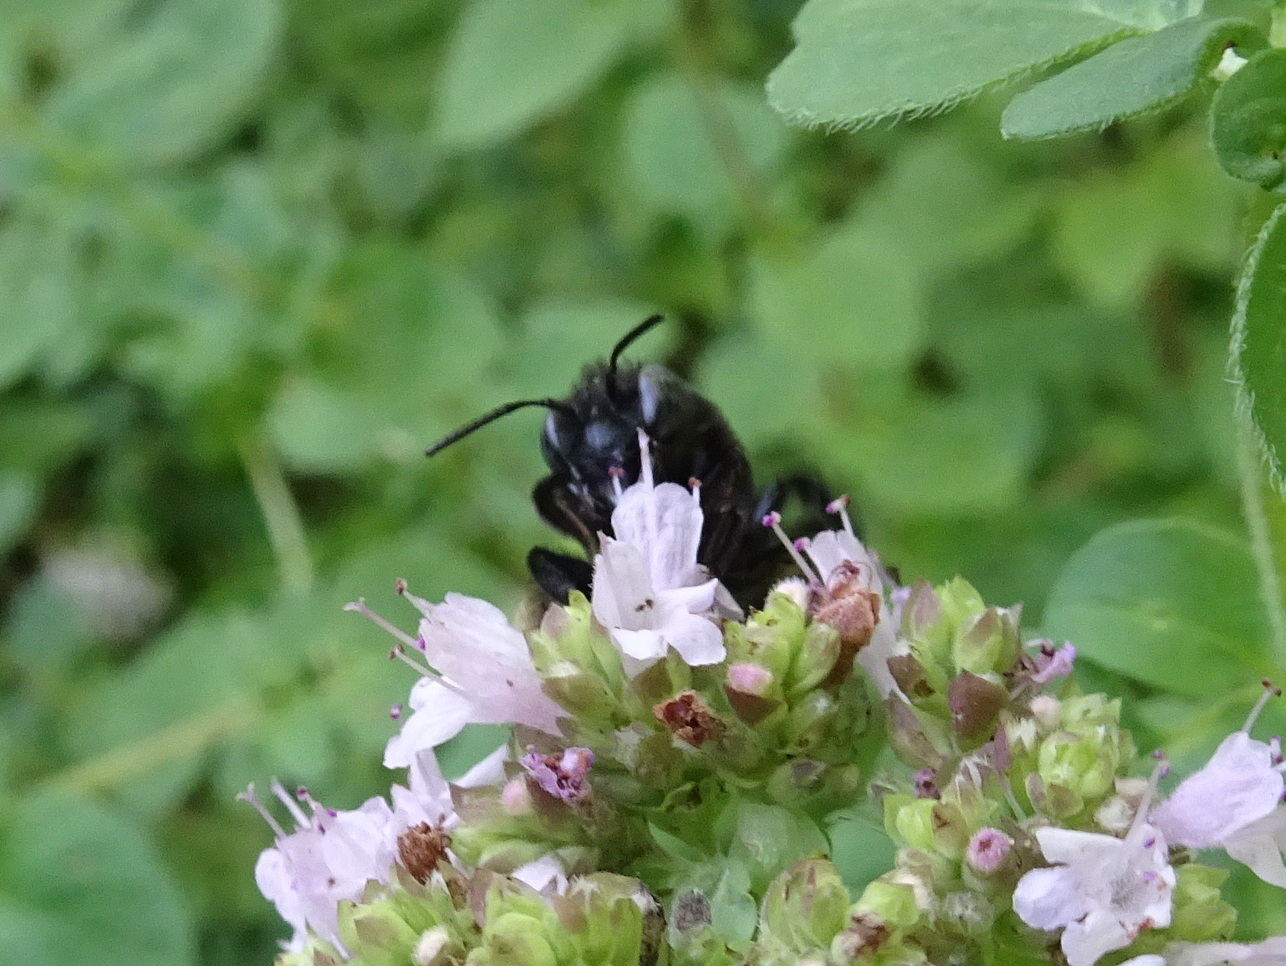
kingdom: Animalia
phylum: Arthropoda
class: Insecta
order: Hymenoptera
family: Apidae
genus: Melissodes
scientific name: Melissodes bimaculatus
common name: Two-spotted long-horned bee
